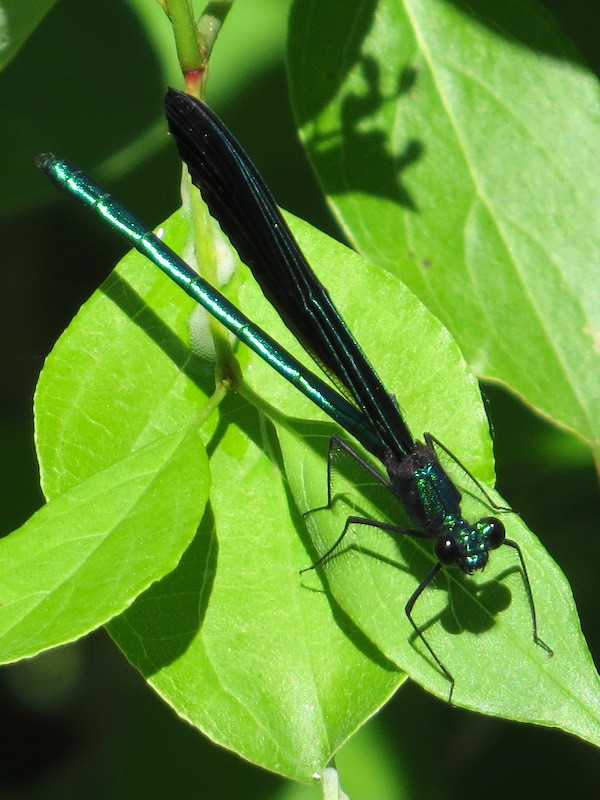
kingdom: Animalia
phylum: Arthropoda
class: Insecta
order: Odonata
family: Calopterygidae
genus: Calopteryx
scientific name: Calopteryx maculata
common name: Ebony jewelwing
